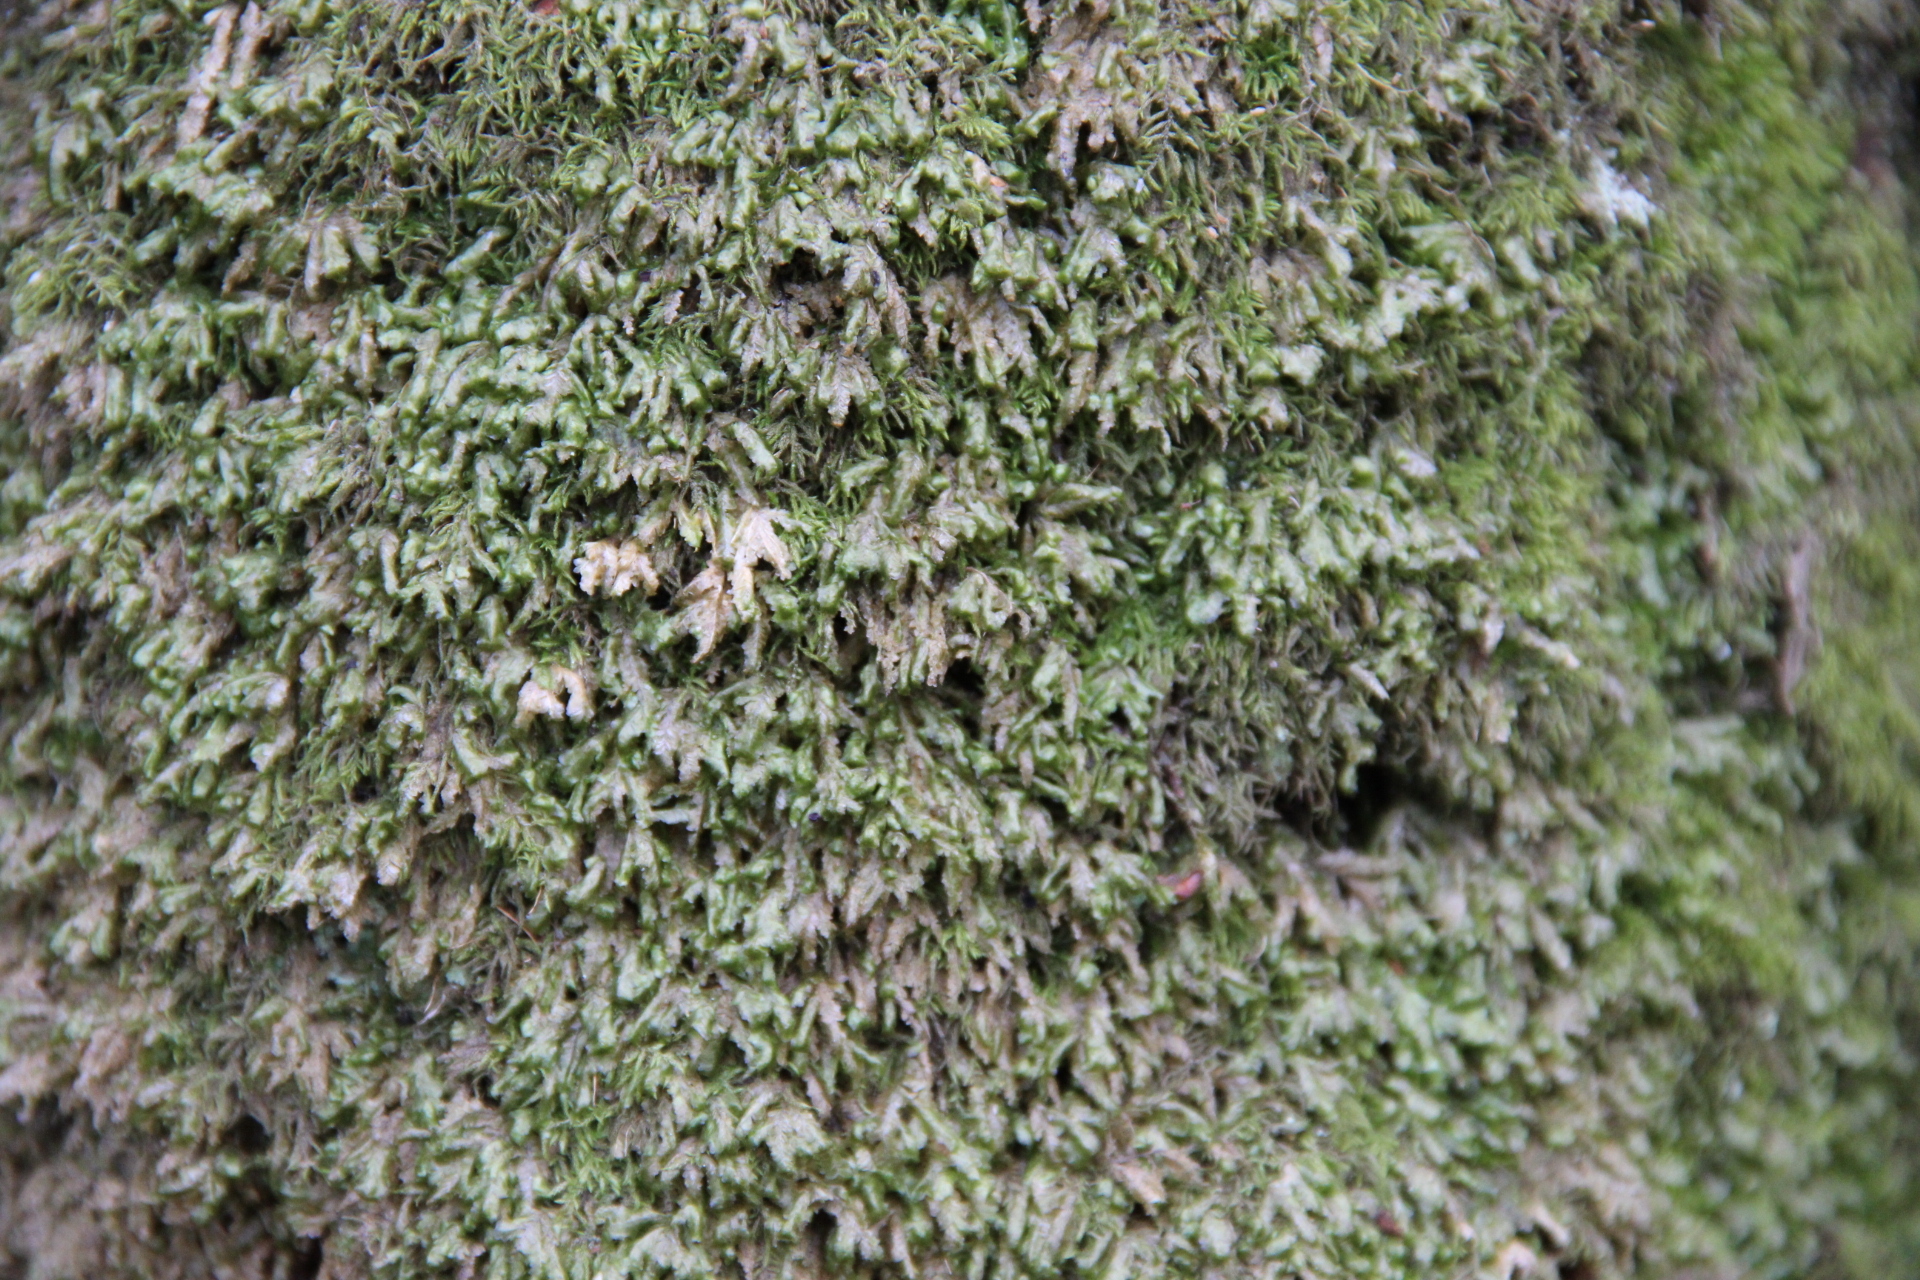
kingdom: Plantae
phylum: Bryophyta
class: Bryopsida
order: Hypnales
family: Neckeraceae
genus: Homalia
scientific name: Homalia trichomanoides
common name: Lime homalia moss
